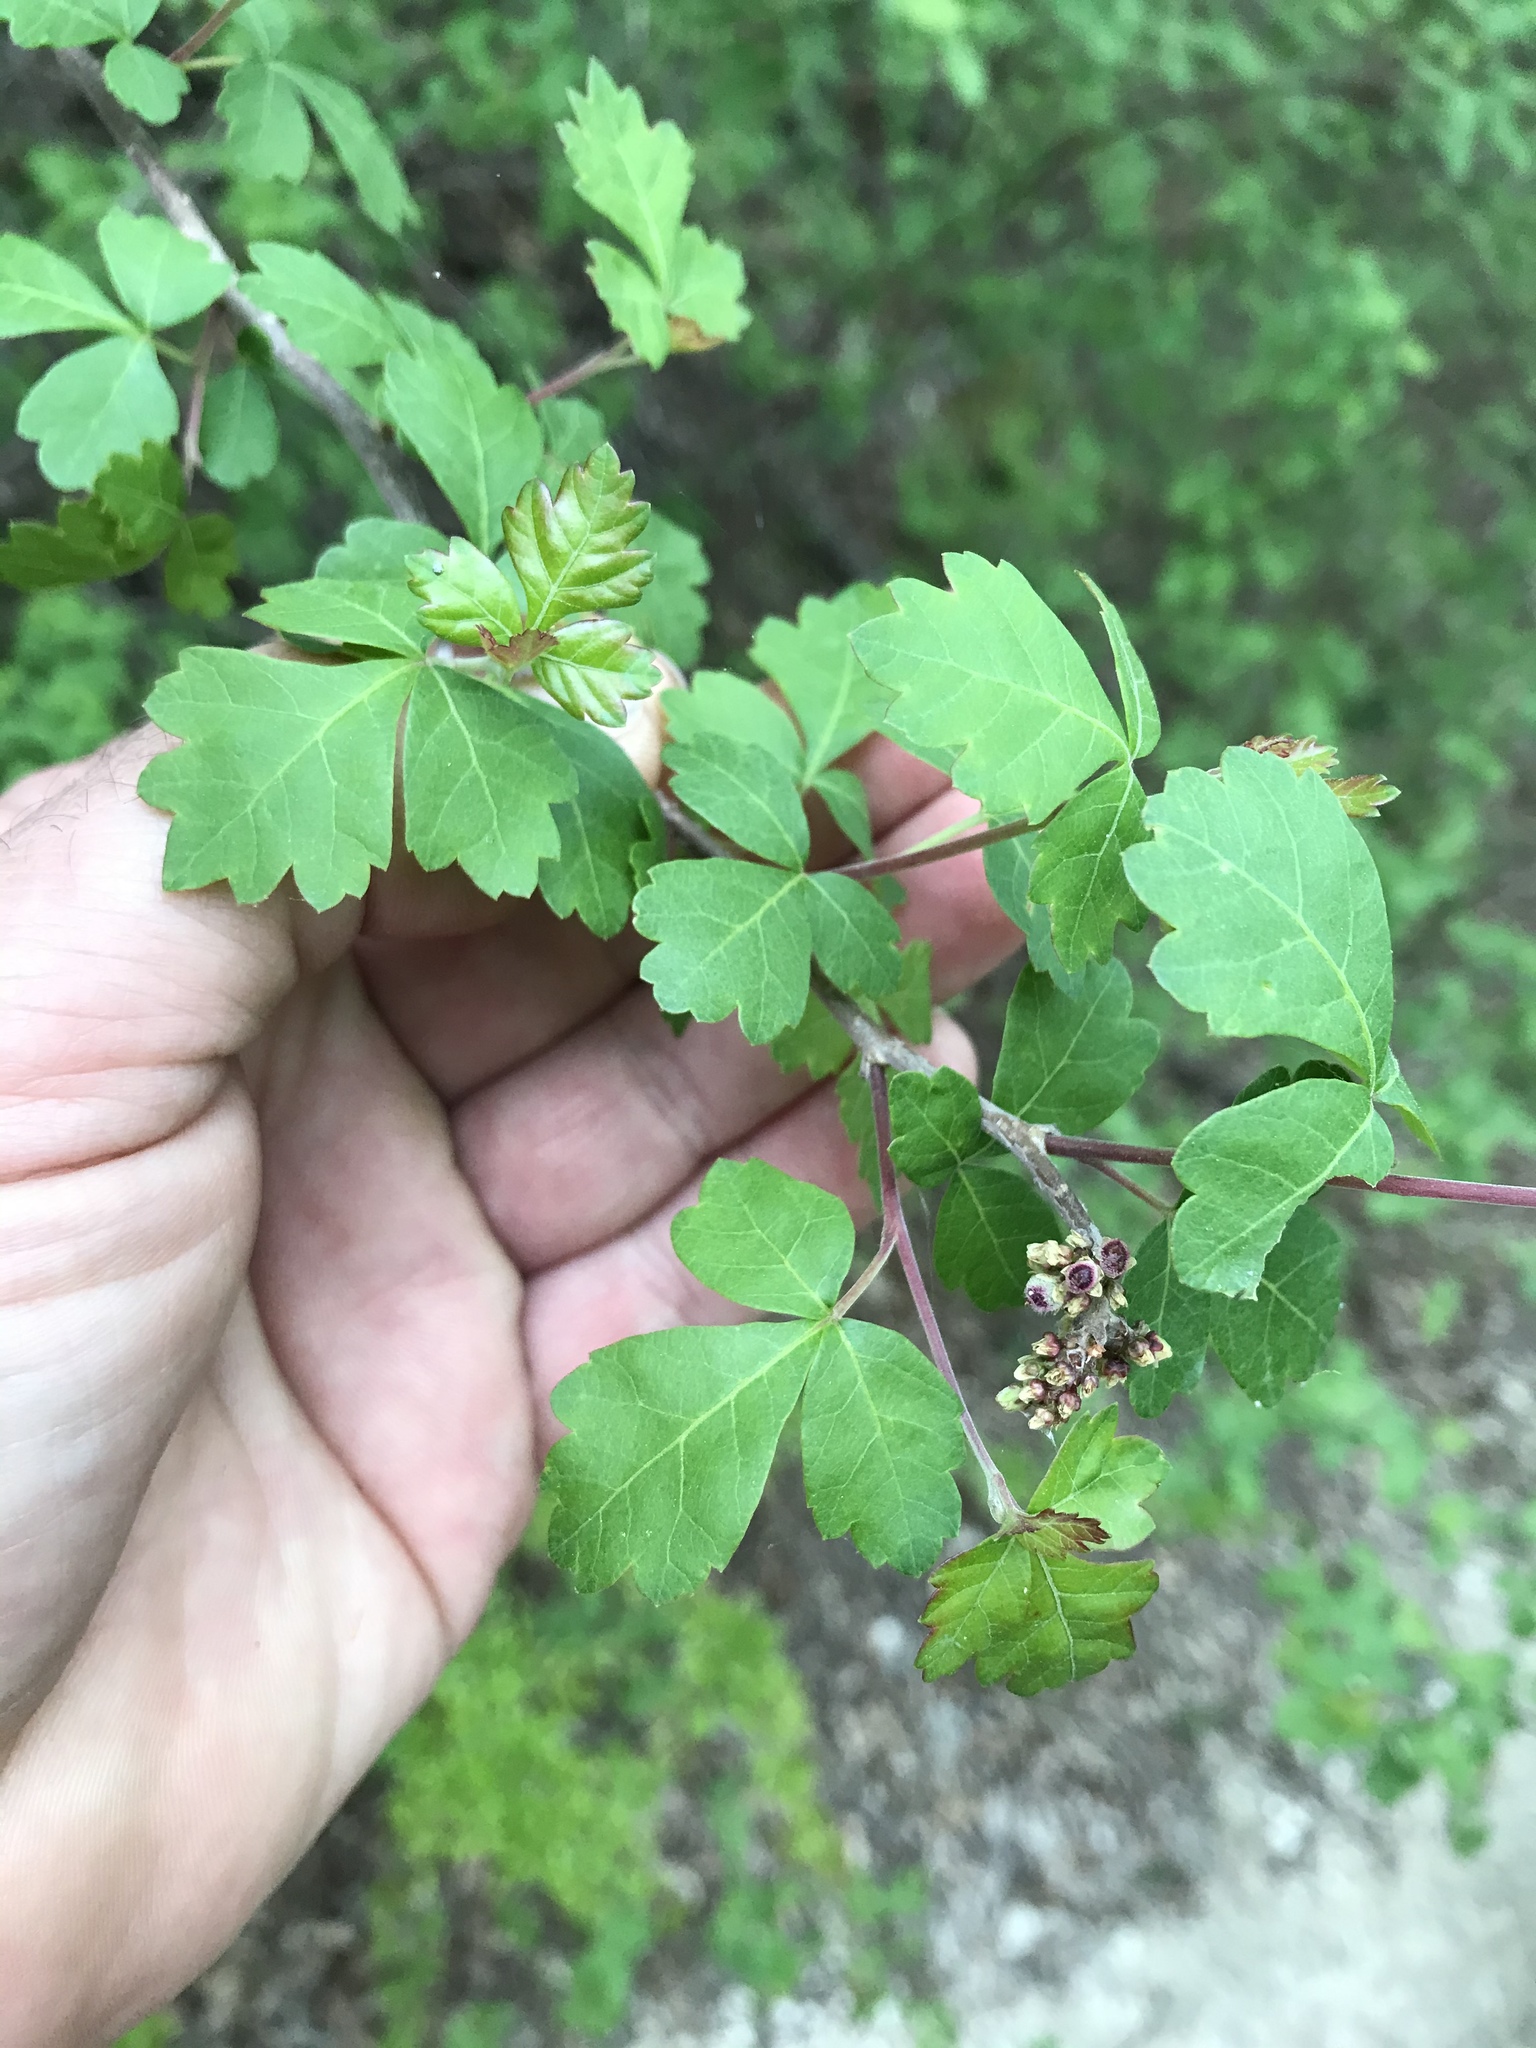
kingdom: Plantae
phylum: Tracheophyta
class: Magnoliopsida
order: Sapindales
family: Anacardiaceae
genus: Rhus
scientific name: Rhus aromatica
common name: Aromatic sumac
